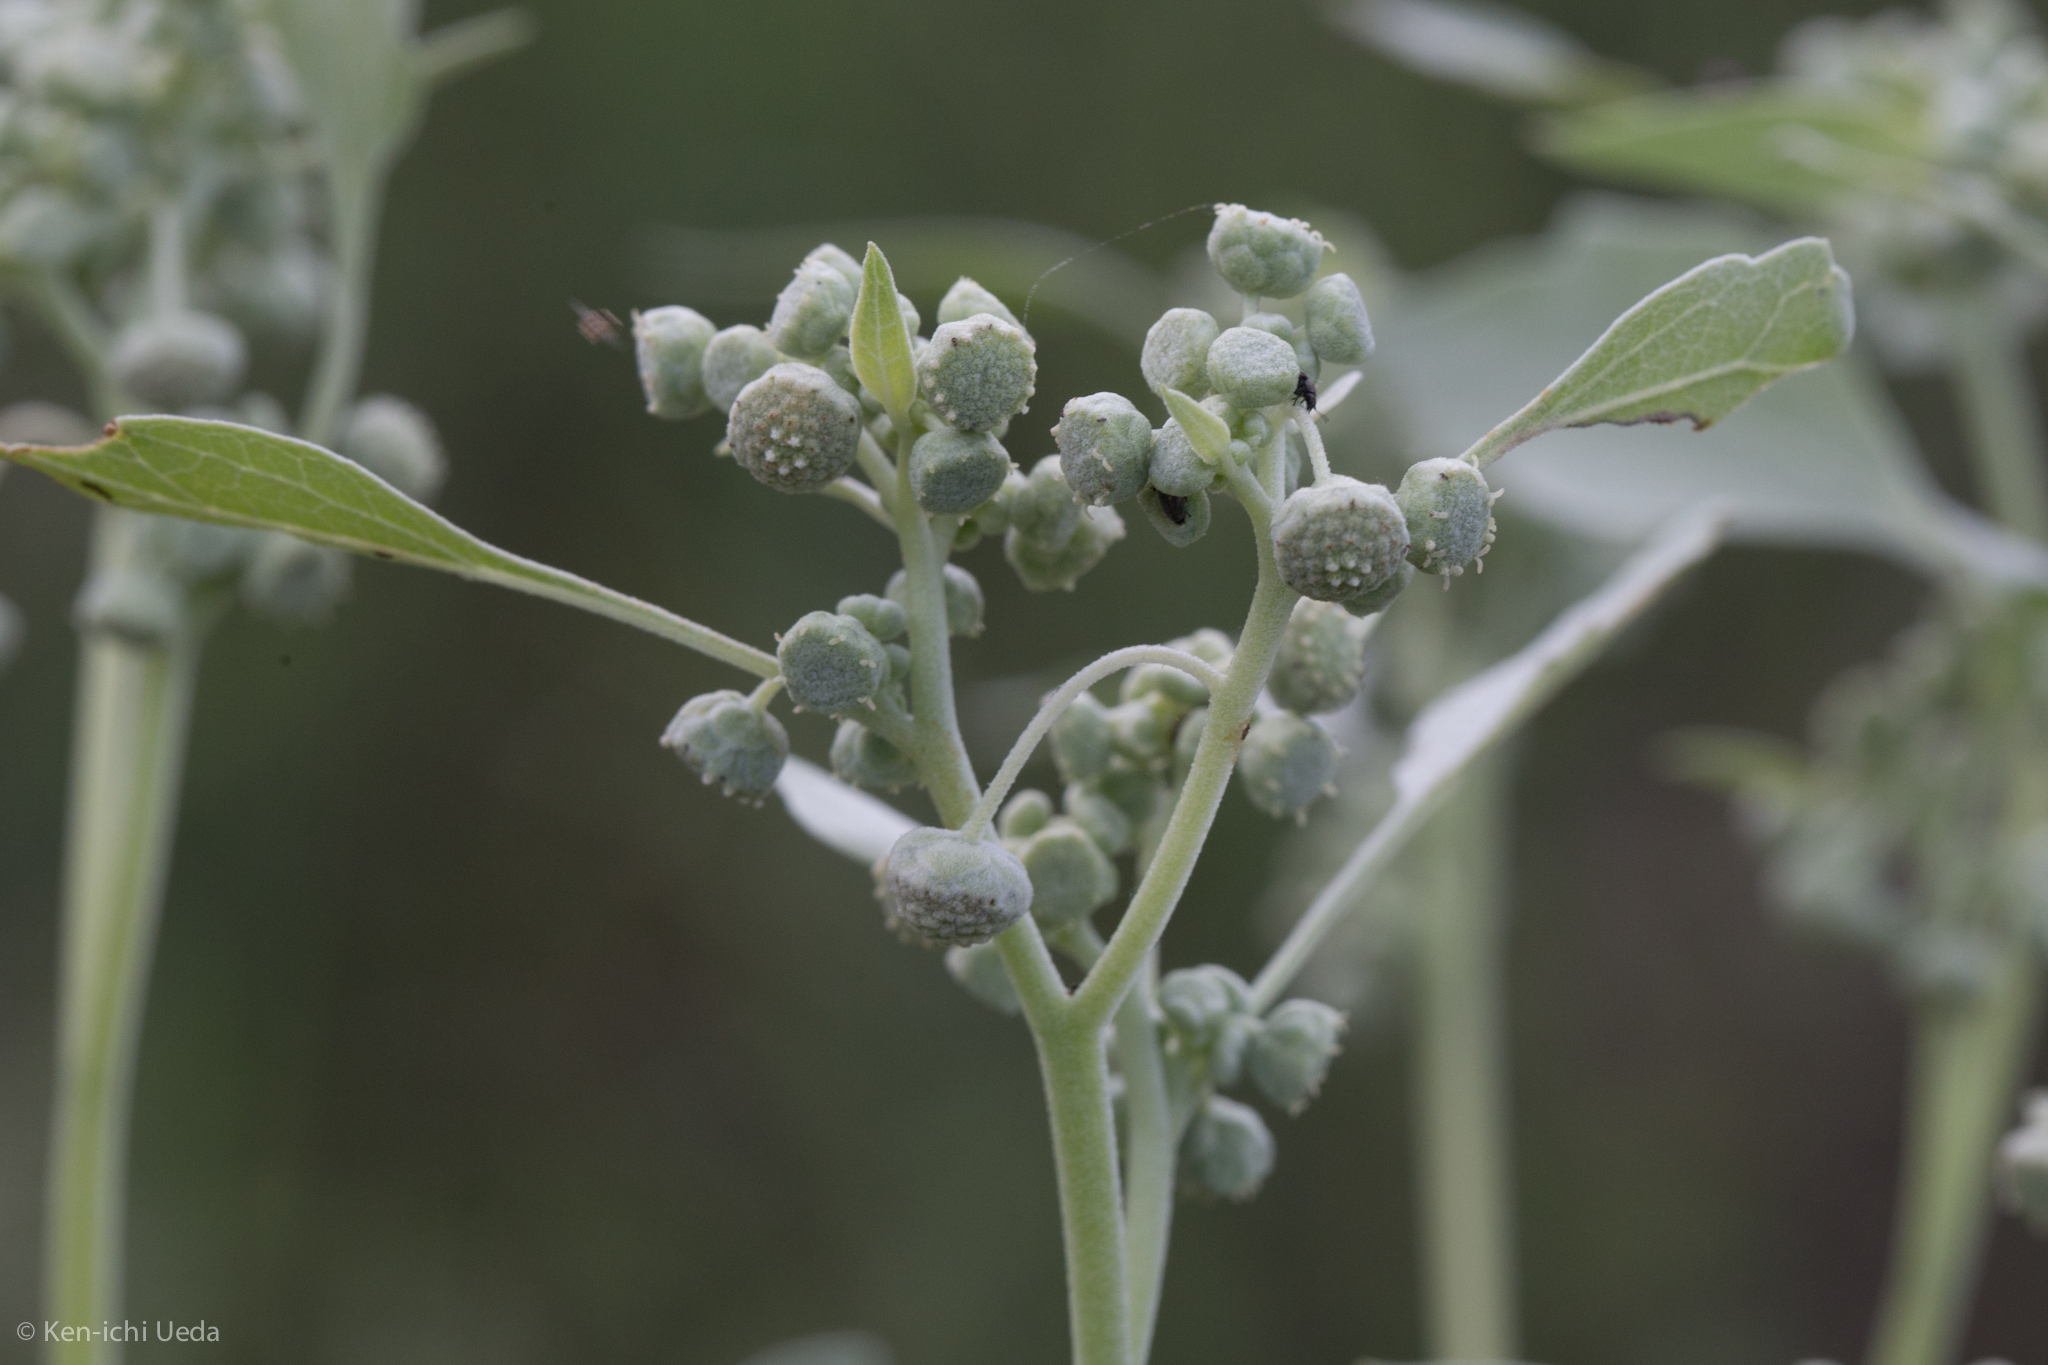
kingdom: Plantae
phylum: Tracheophyta
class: Magnoliopsida
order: Asterales
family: Asteraceae
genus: Parthenice
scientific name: Parthenice mollis
